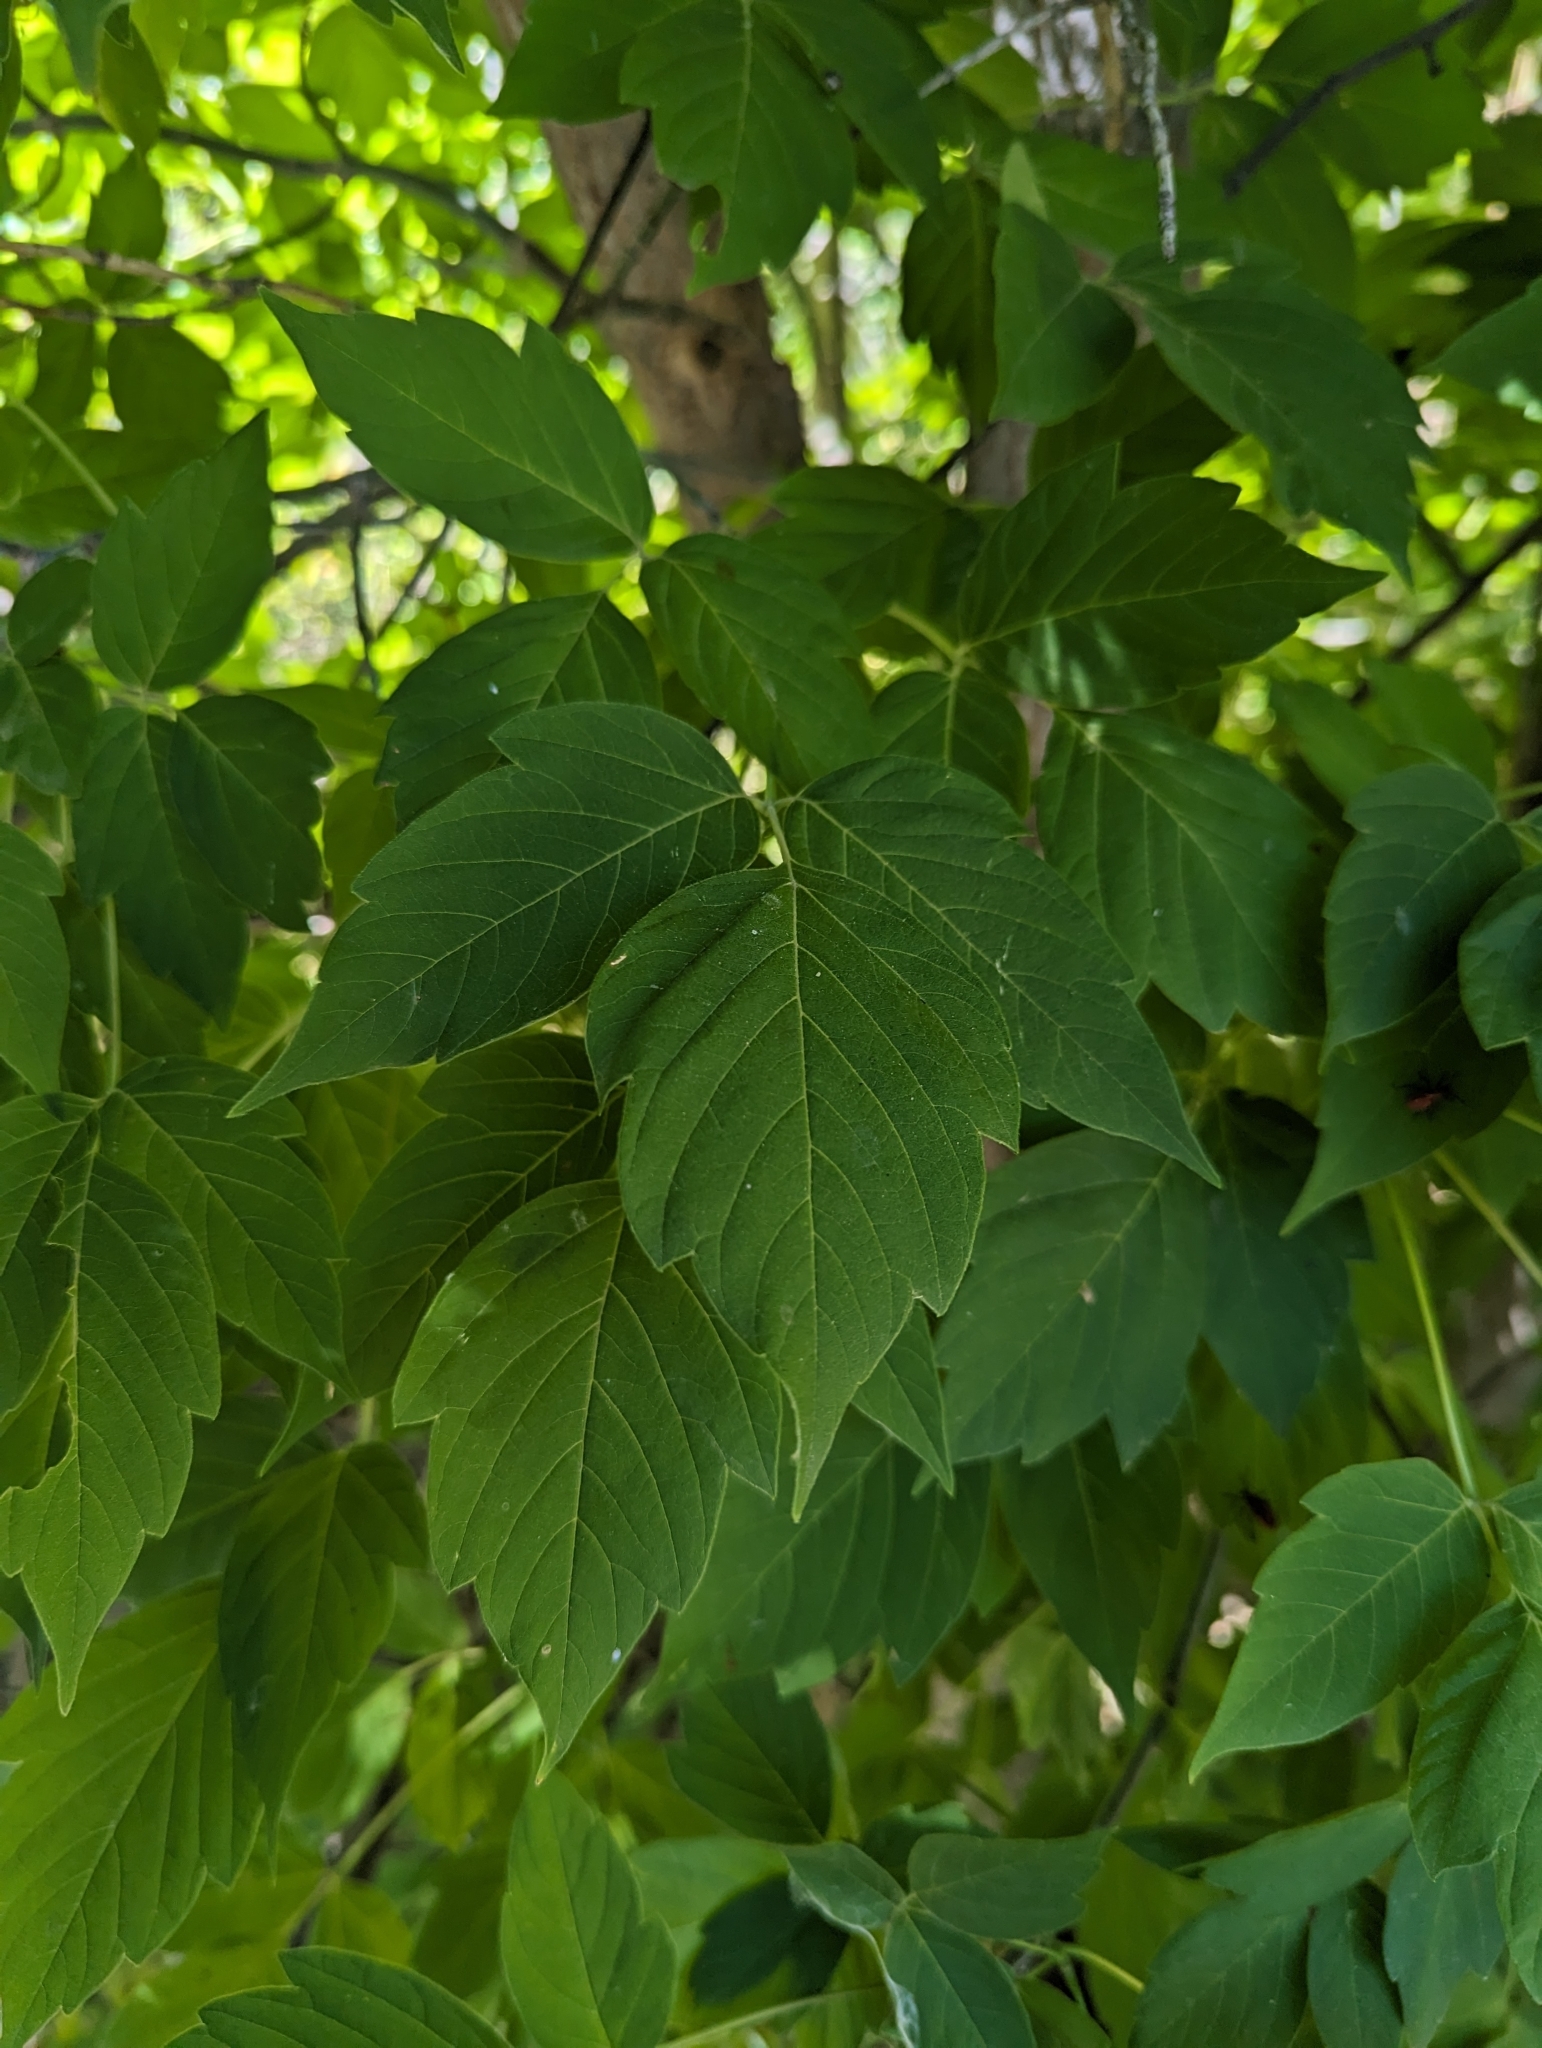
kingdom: Plantae
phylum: Tracheophyta
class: Magnoliopsida
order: Sapindales
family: Sapindaceae
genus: Acer
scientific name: Acer negundo
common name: Ashleaf maple
